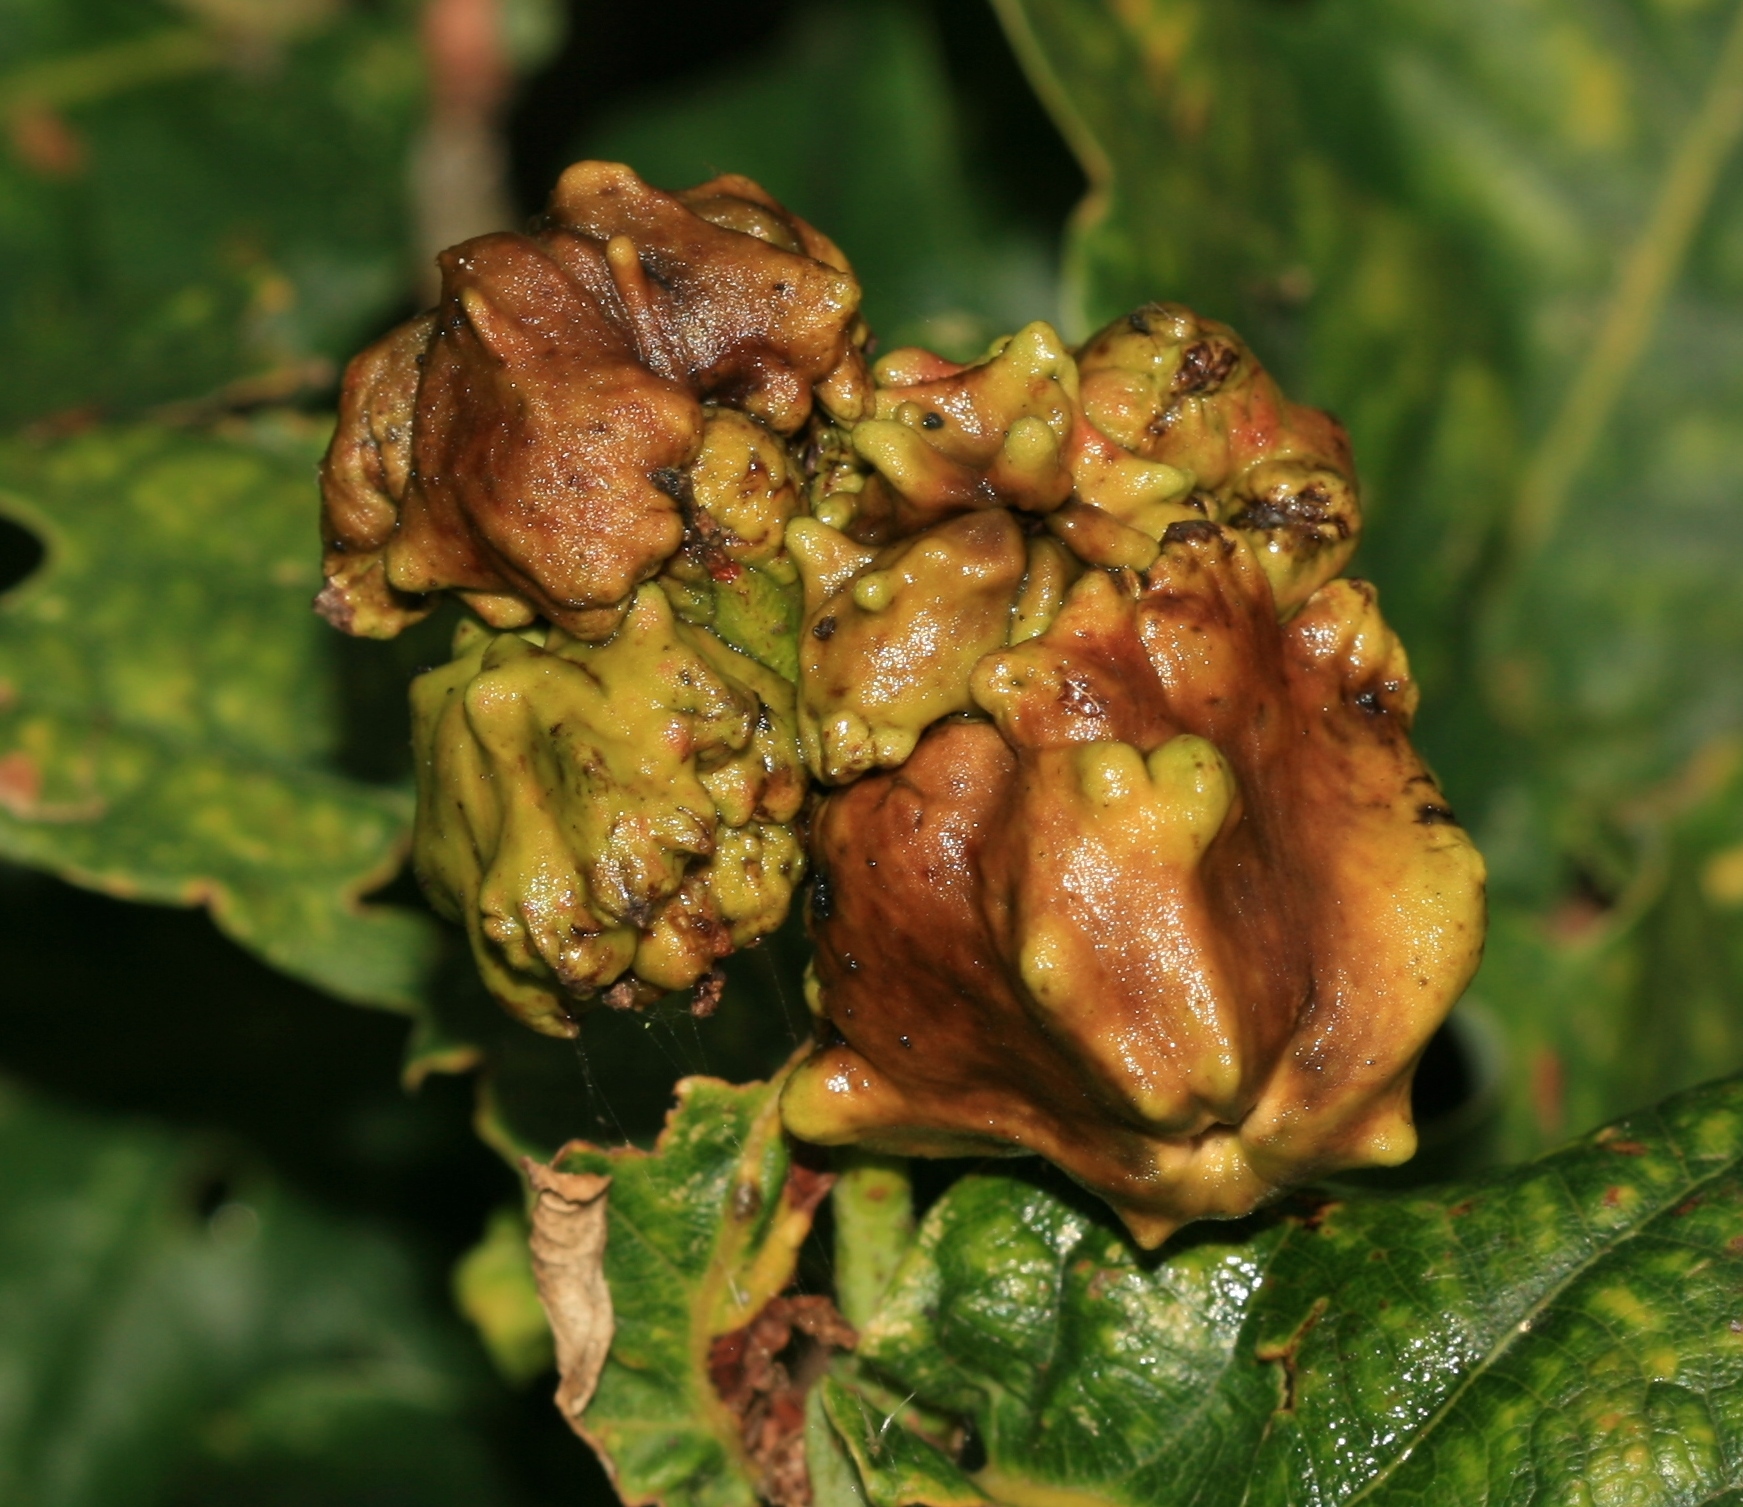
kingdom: Animalia
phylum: Arthropoda
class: Insecta
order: Hymenoptera
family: Cynipidae
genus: Andricus
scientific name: Andricus quercuscalicis
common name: Knopper gall
